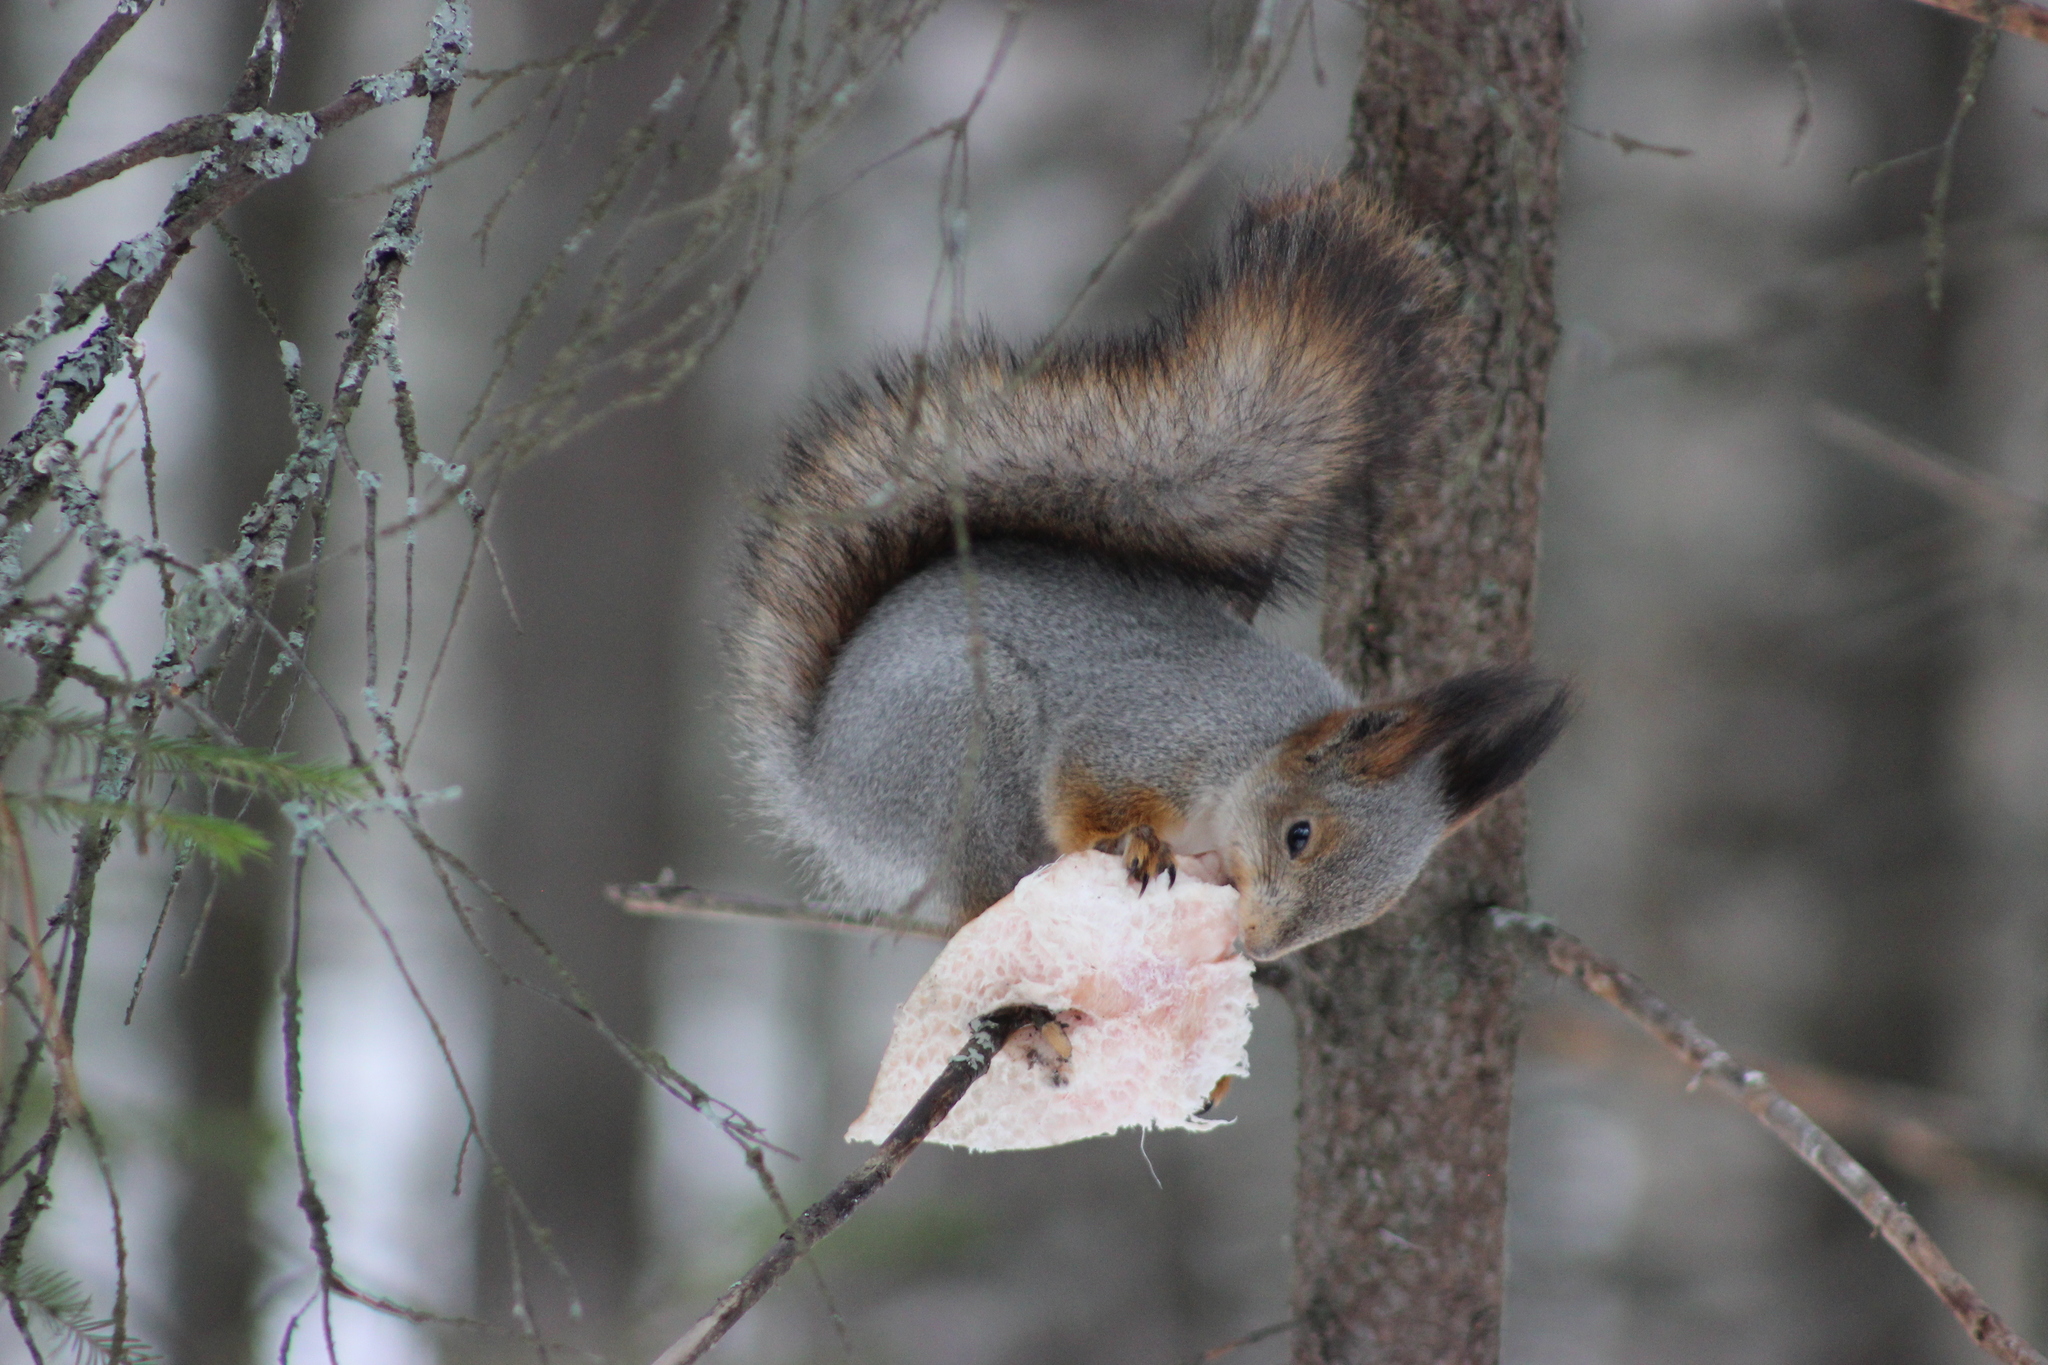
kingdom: Animalia
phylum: Chordata
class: Mammalia
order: Rodentia
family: Sciuridae
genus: Sciurus
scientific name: Sciurus vulgaris
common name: Eurasian red squirrel
